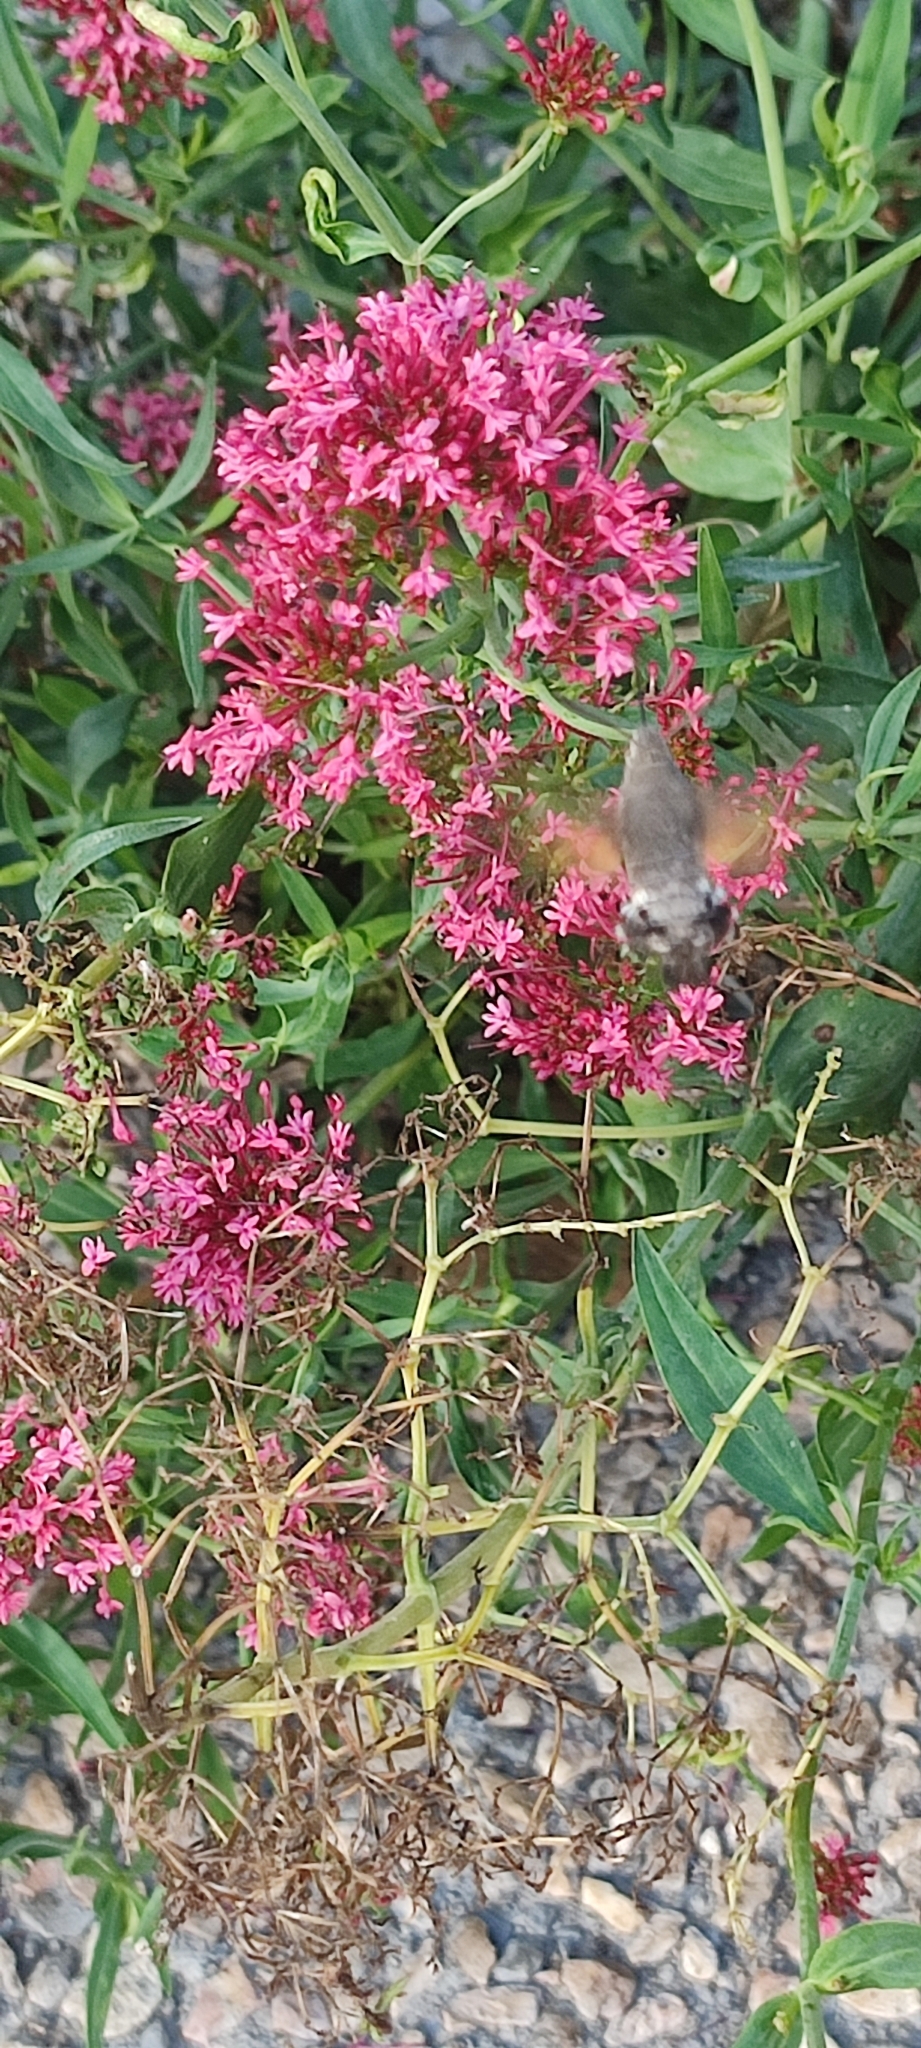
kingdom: Animalia
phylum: Arthropoda
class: Insecta
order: Lepidoptera
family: Sphingidae
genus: Macroglossum
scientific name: Macroglossum stellatarum
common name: Humming-bird hawk-moth
